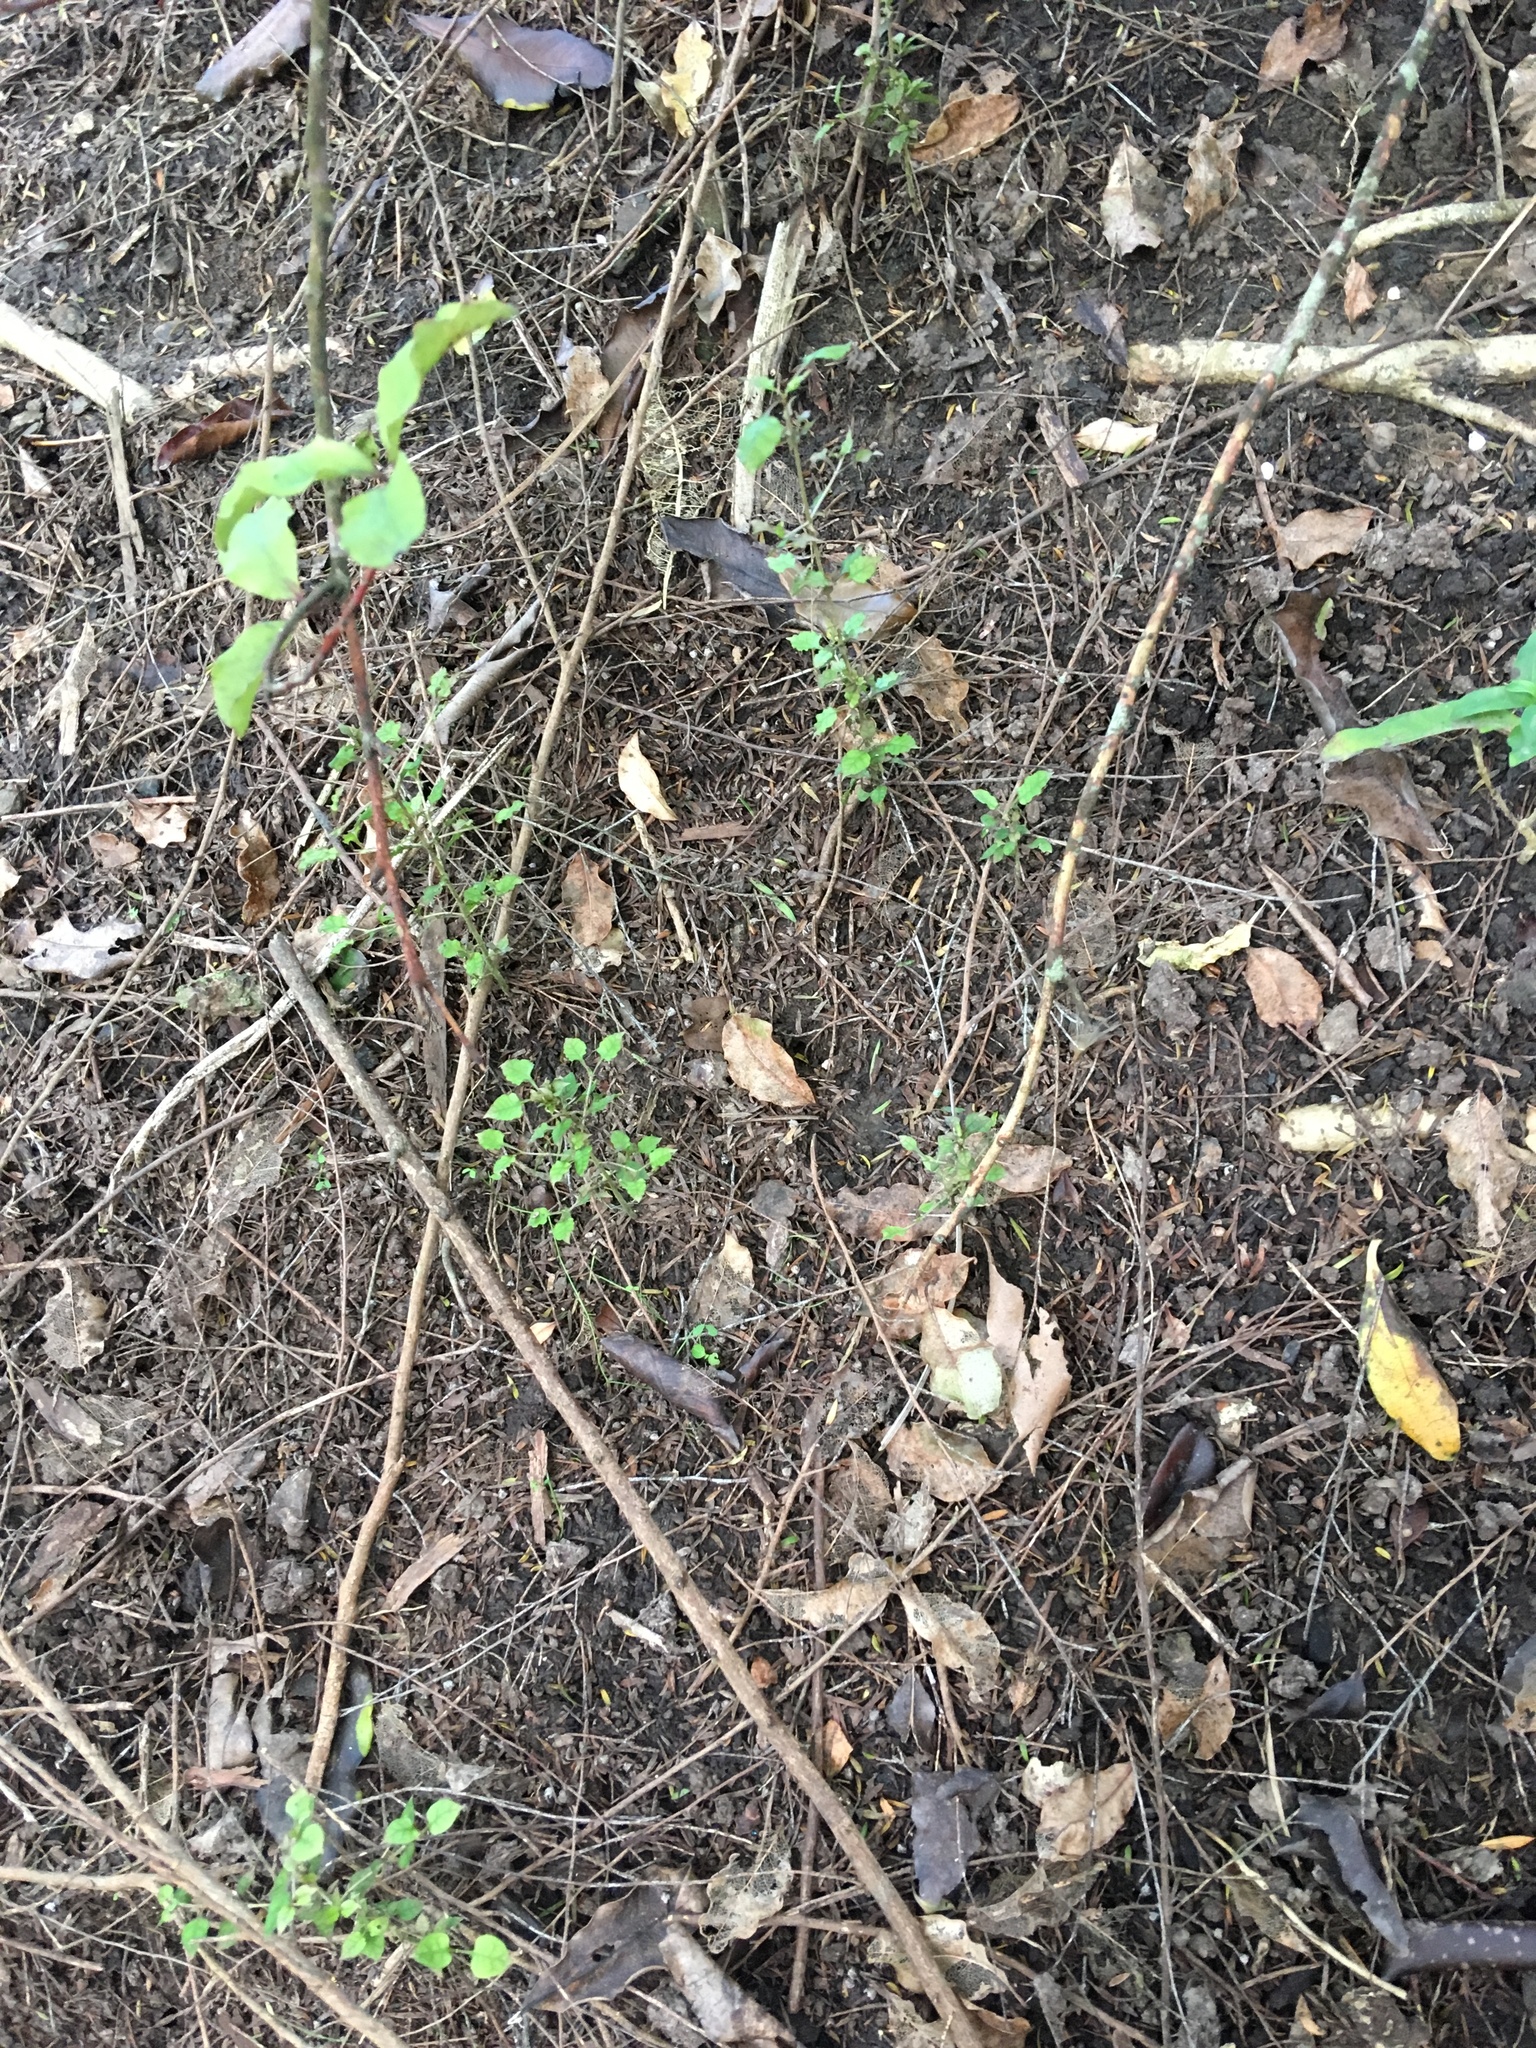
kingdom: Plantae
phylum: Tracheophyta
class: Magnoliopsida
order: Gentianales
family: Rubiaceae
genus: Coprosma
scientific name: Coprosma areolata
